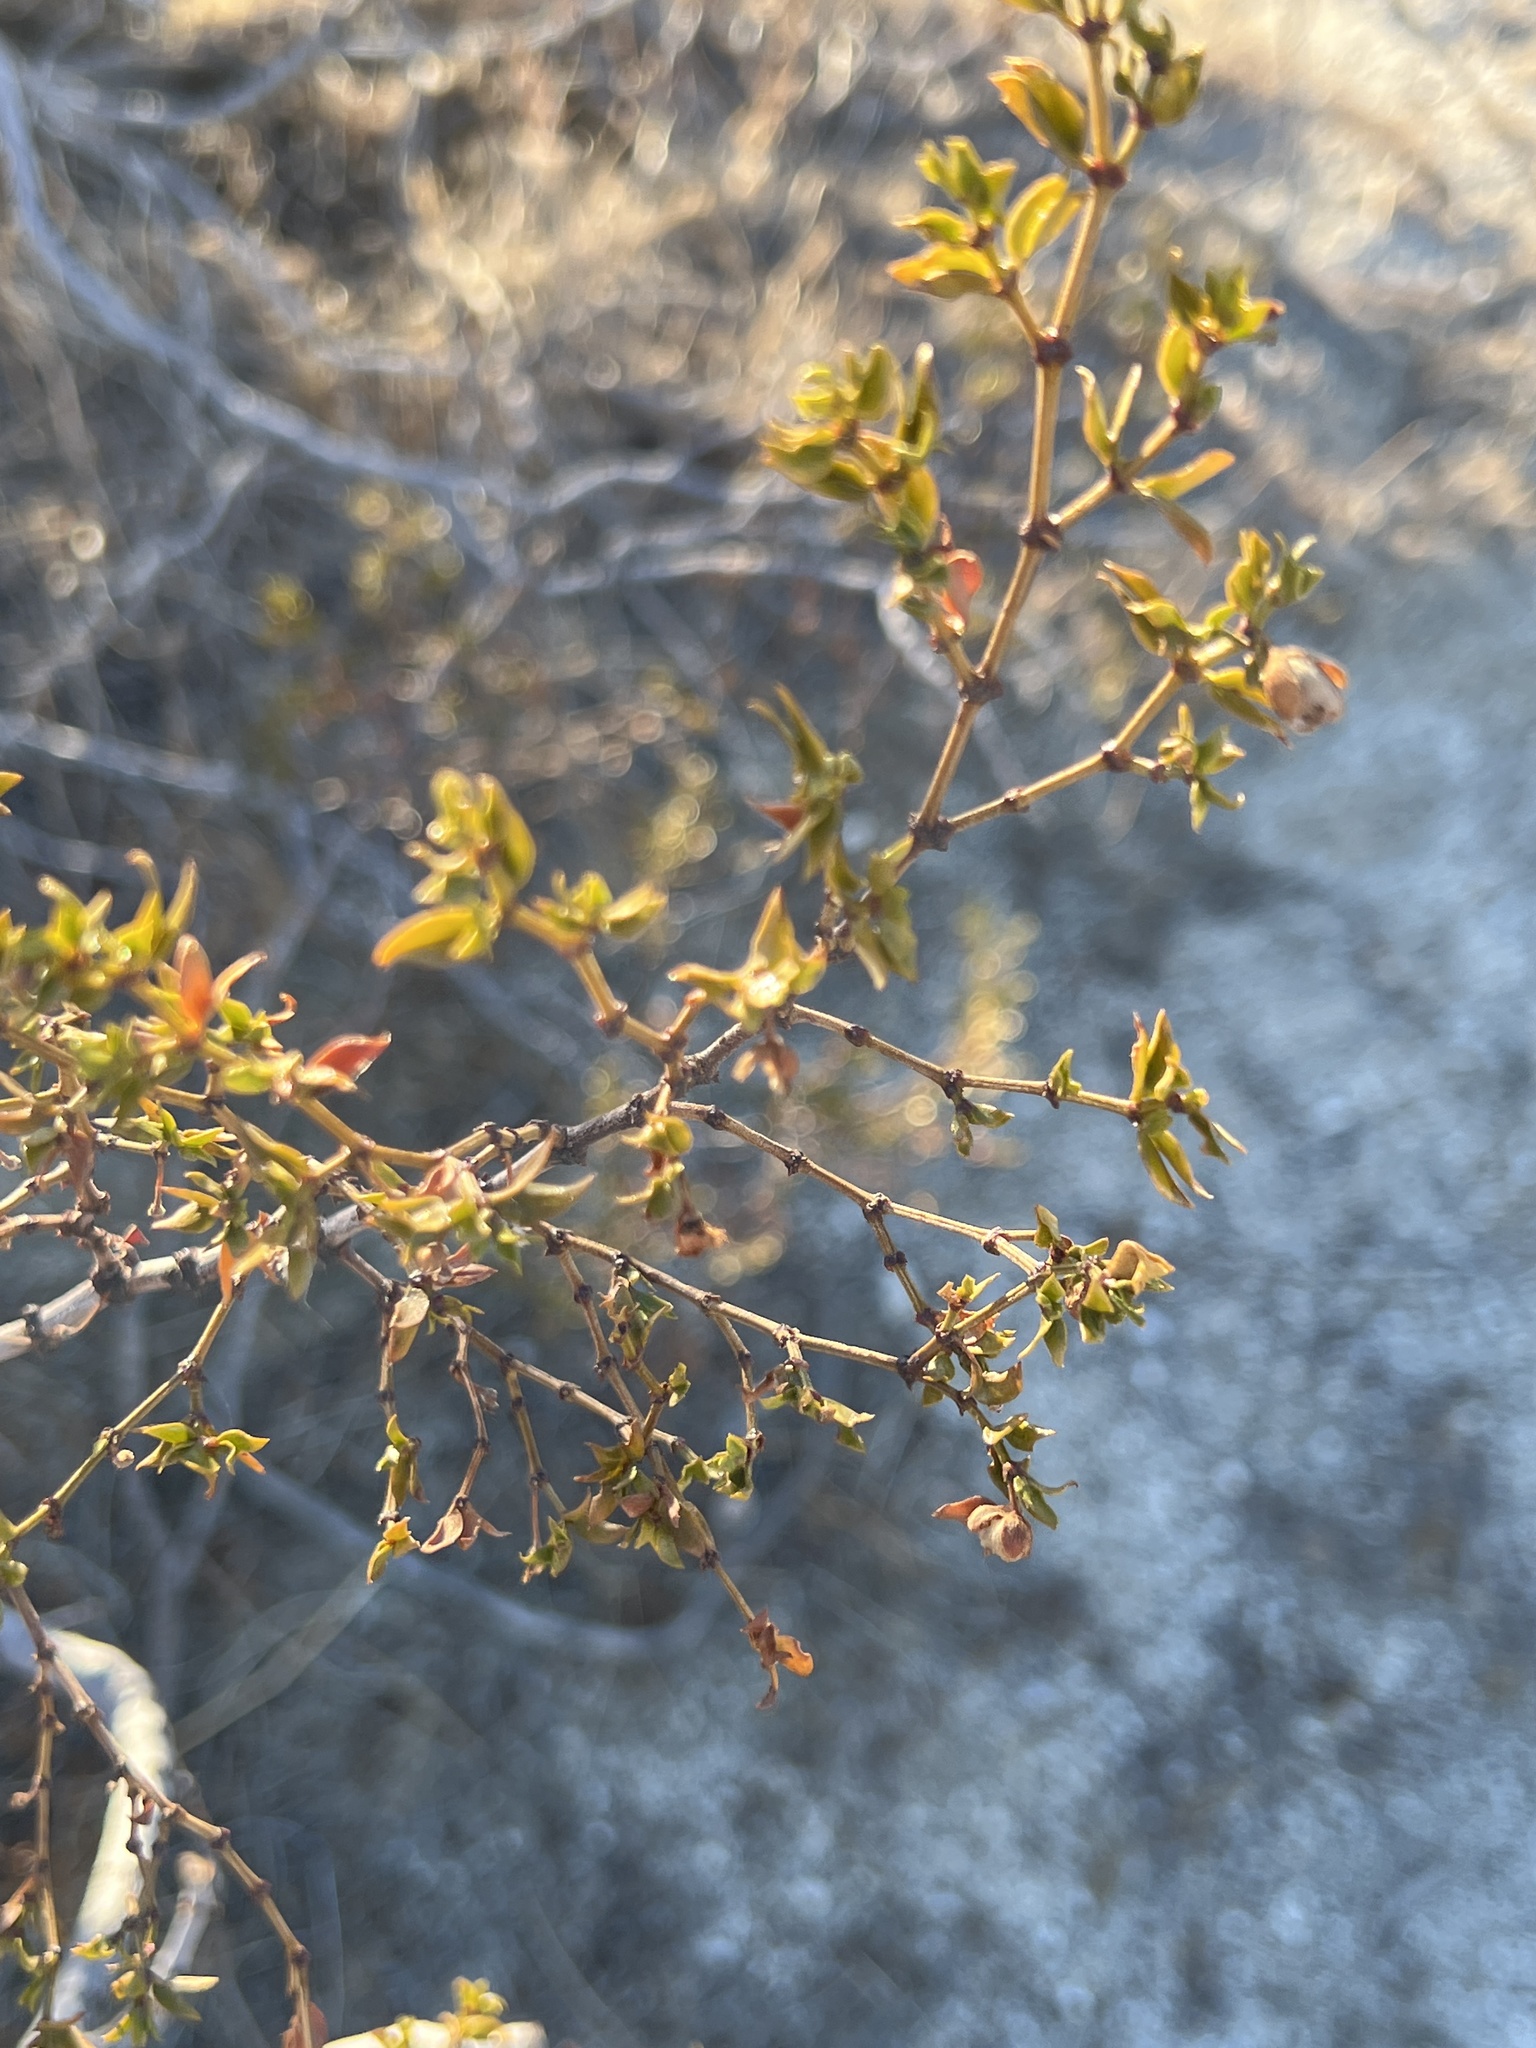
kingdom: Plantae
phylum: Tracheophyta
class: Magnoliopsida
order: Zygophyllales
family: Zygophyllaceae
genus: Larrea
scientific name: Larrea tridentata
